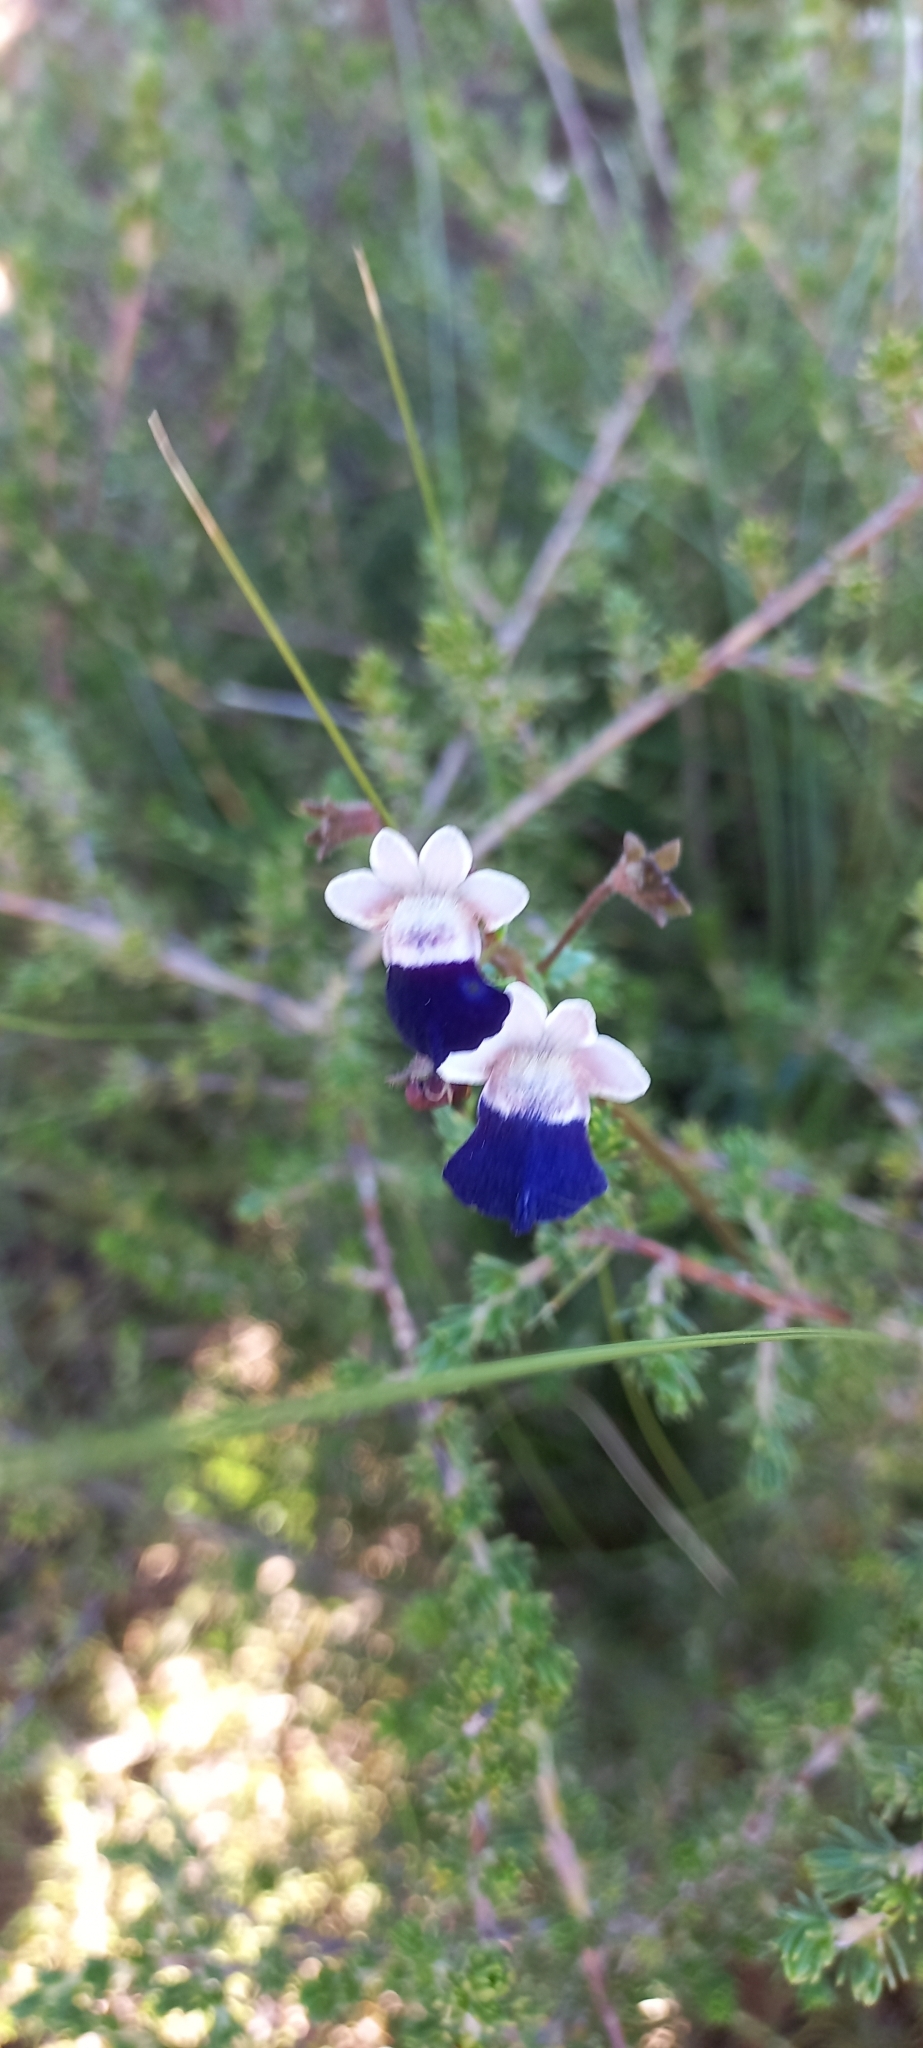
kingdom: Plantae
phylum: Tracheophyta
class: Magnoliopsida
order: Lamiales
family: Scrophulariaceae
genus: Nemesia
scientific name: Nemesia barbata
